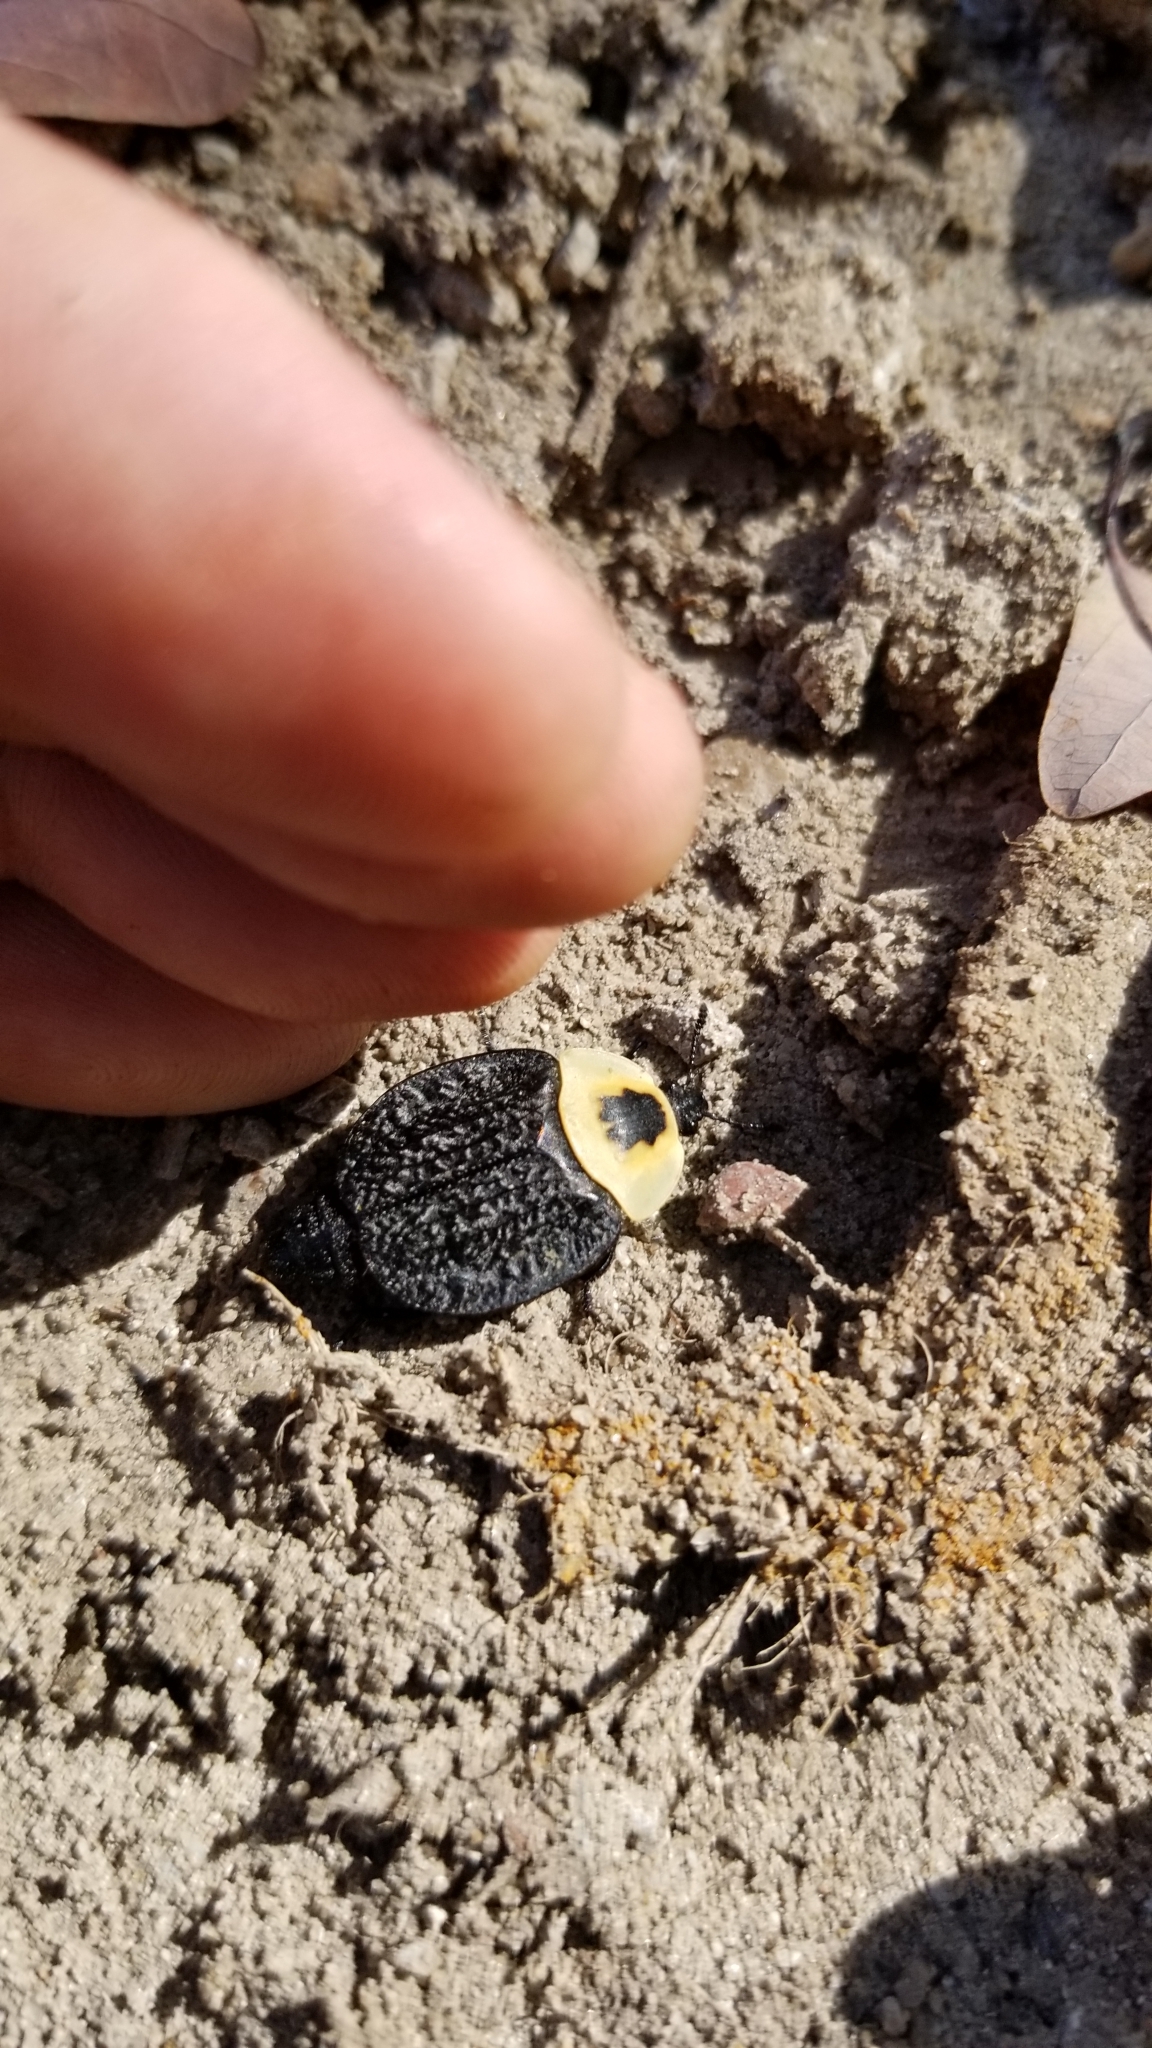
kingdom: Animalia
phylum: Arthropoda
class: Insecta
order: Coleoptera
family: Staphylinidae
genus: Necrophila
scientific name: Necrophila americana
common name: American carrion beetle
